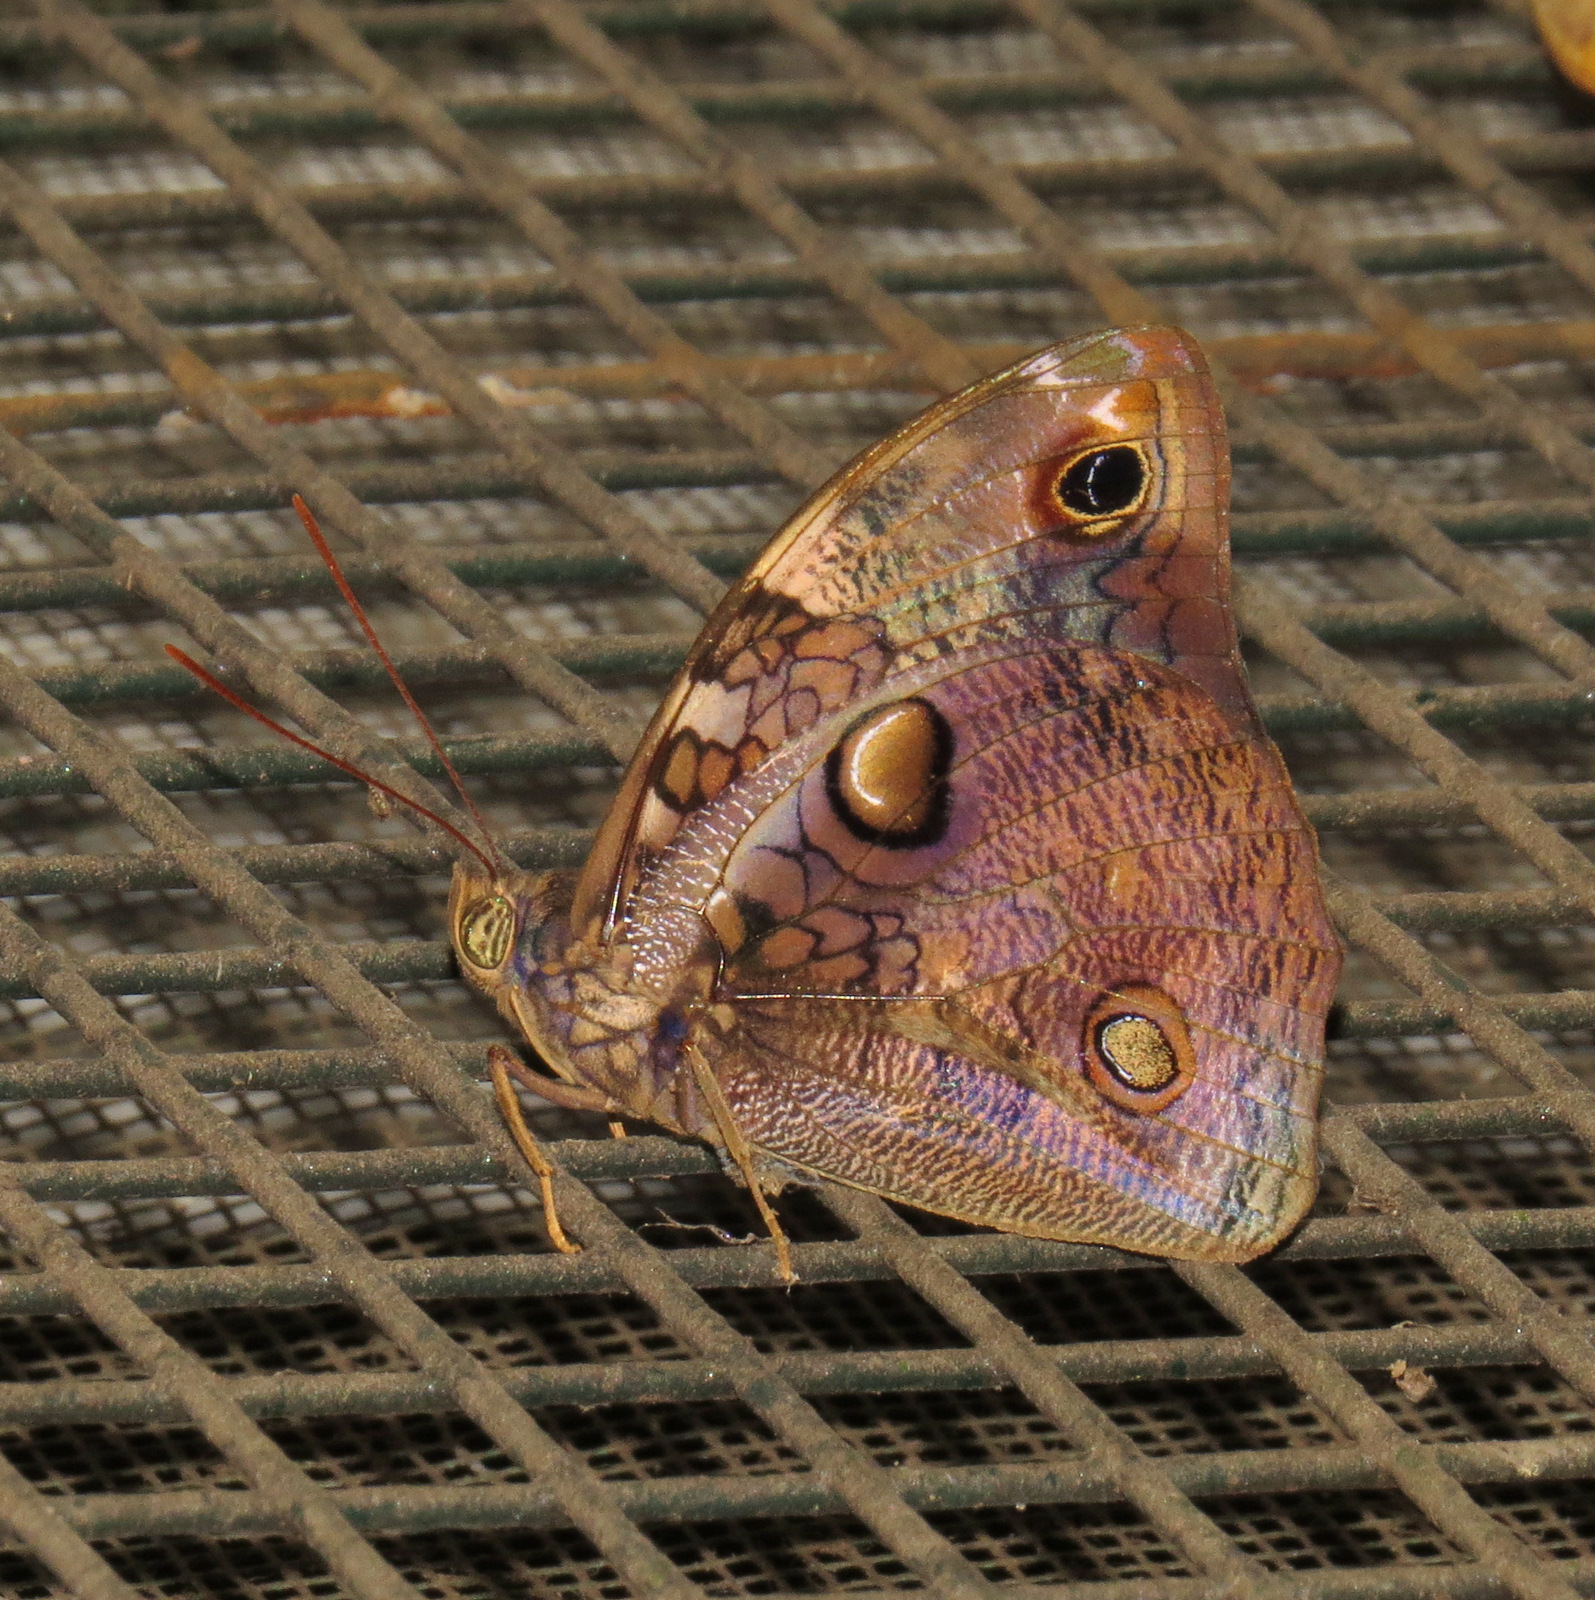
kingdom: Animalia
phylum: Arthropoda
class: Insecta
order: Lepidoptera
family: Nymphalidae
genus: Opsiphanes
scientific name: Opsiphanes cassiae
